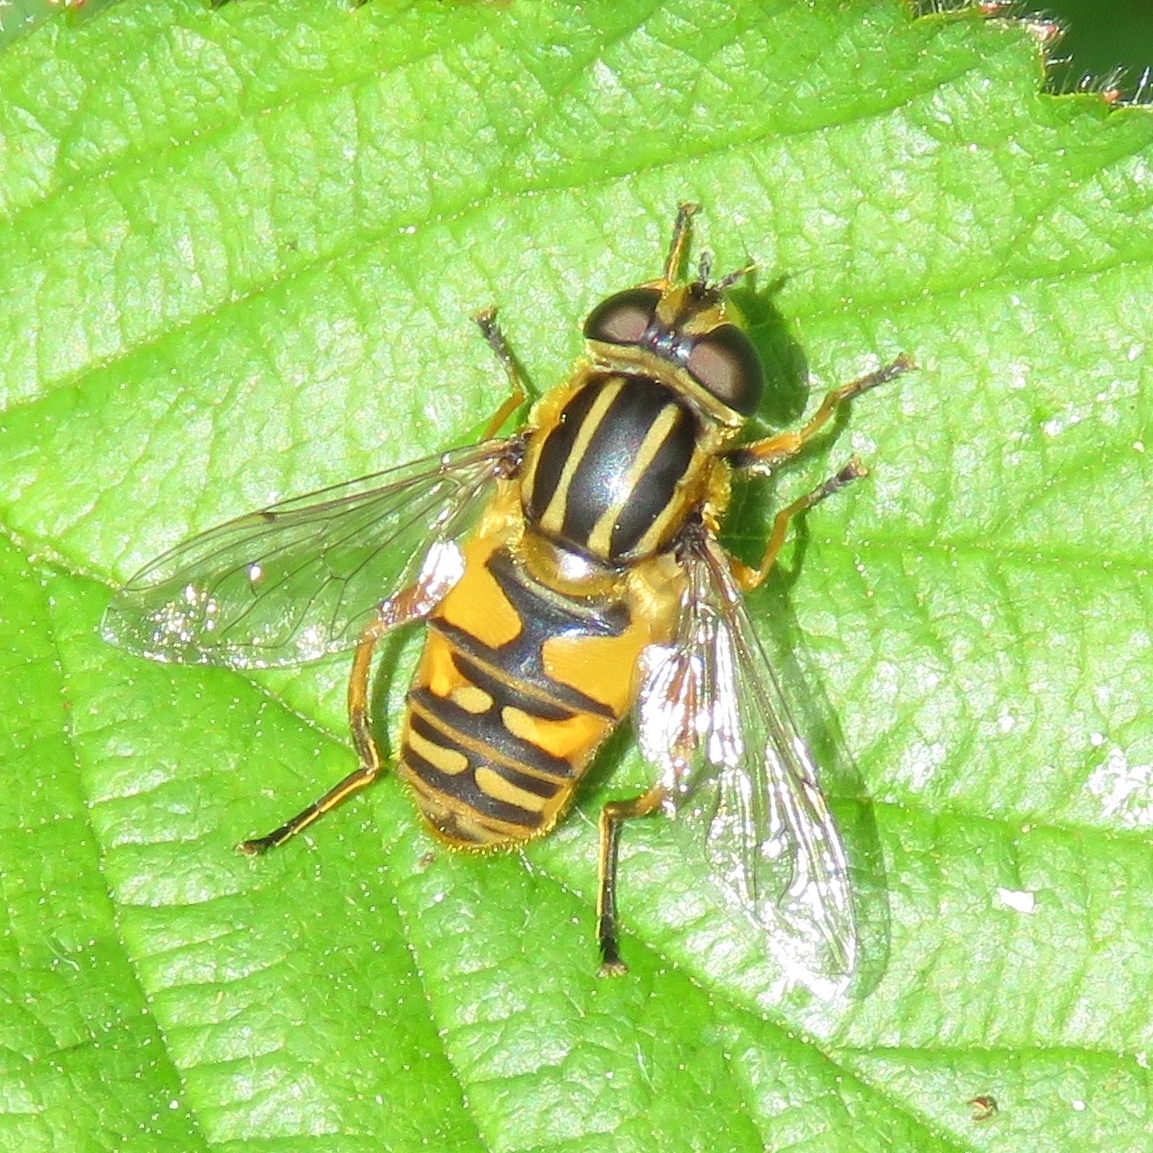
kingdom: Animalia
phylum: Arthropoda
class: Insecta
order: Diptera
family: Syrphidae
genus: Helophilus
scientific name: Helophilus pendulus
